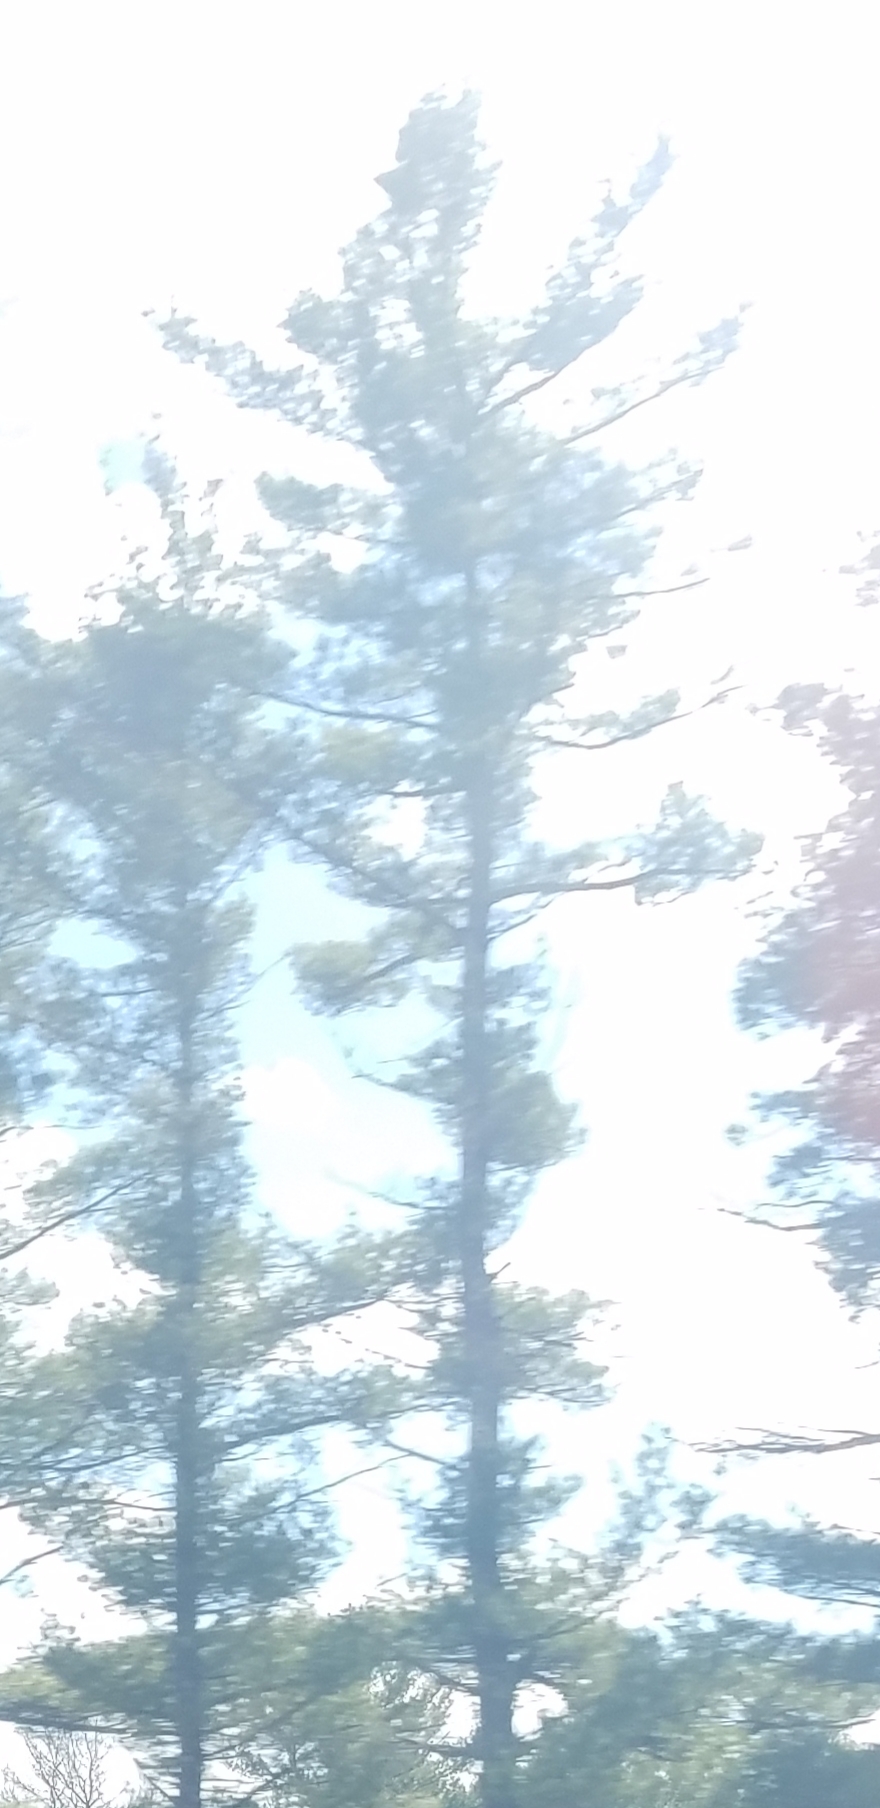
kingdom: Plantae
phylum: Tracheophyta
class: Pinopsida
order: Pinales
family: Pinaceae
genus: Pinus
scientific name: Pinus strobus
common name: Weymouth pine
